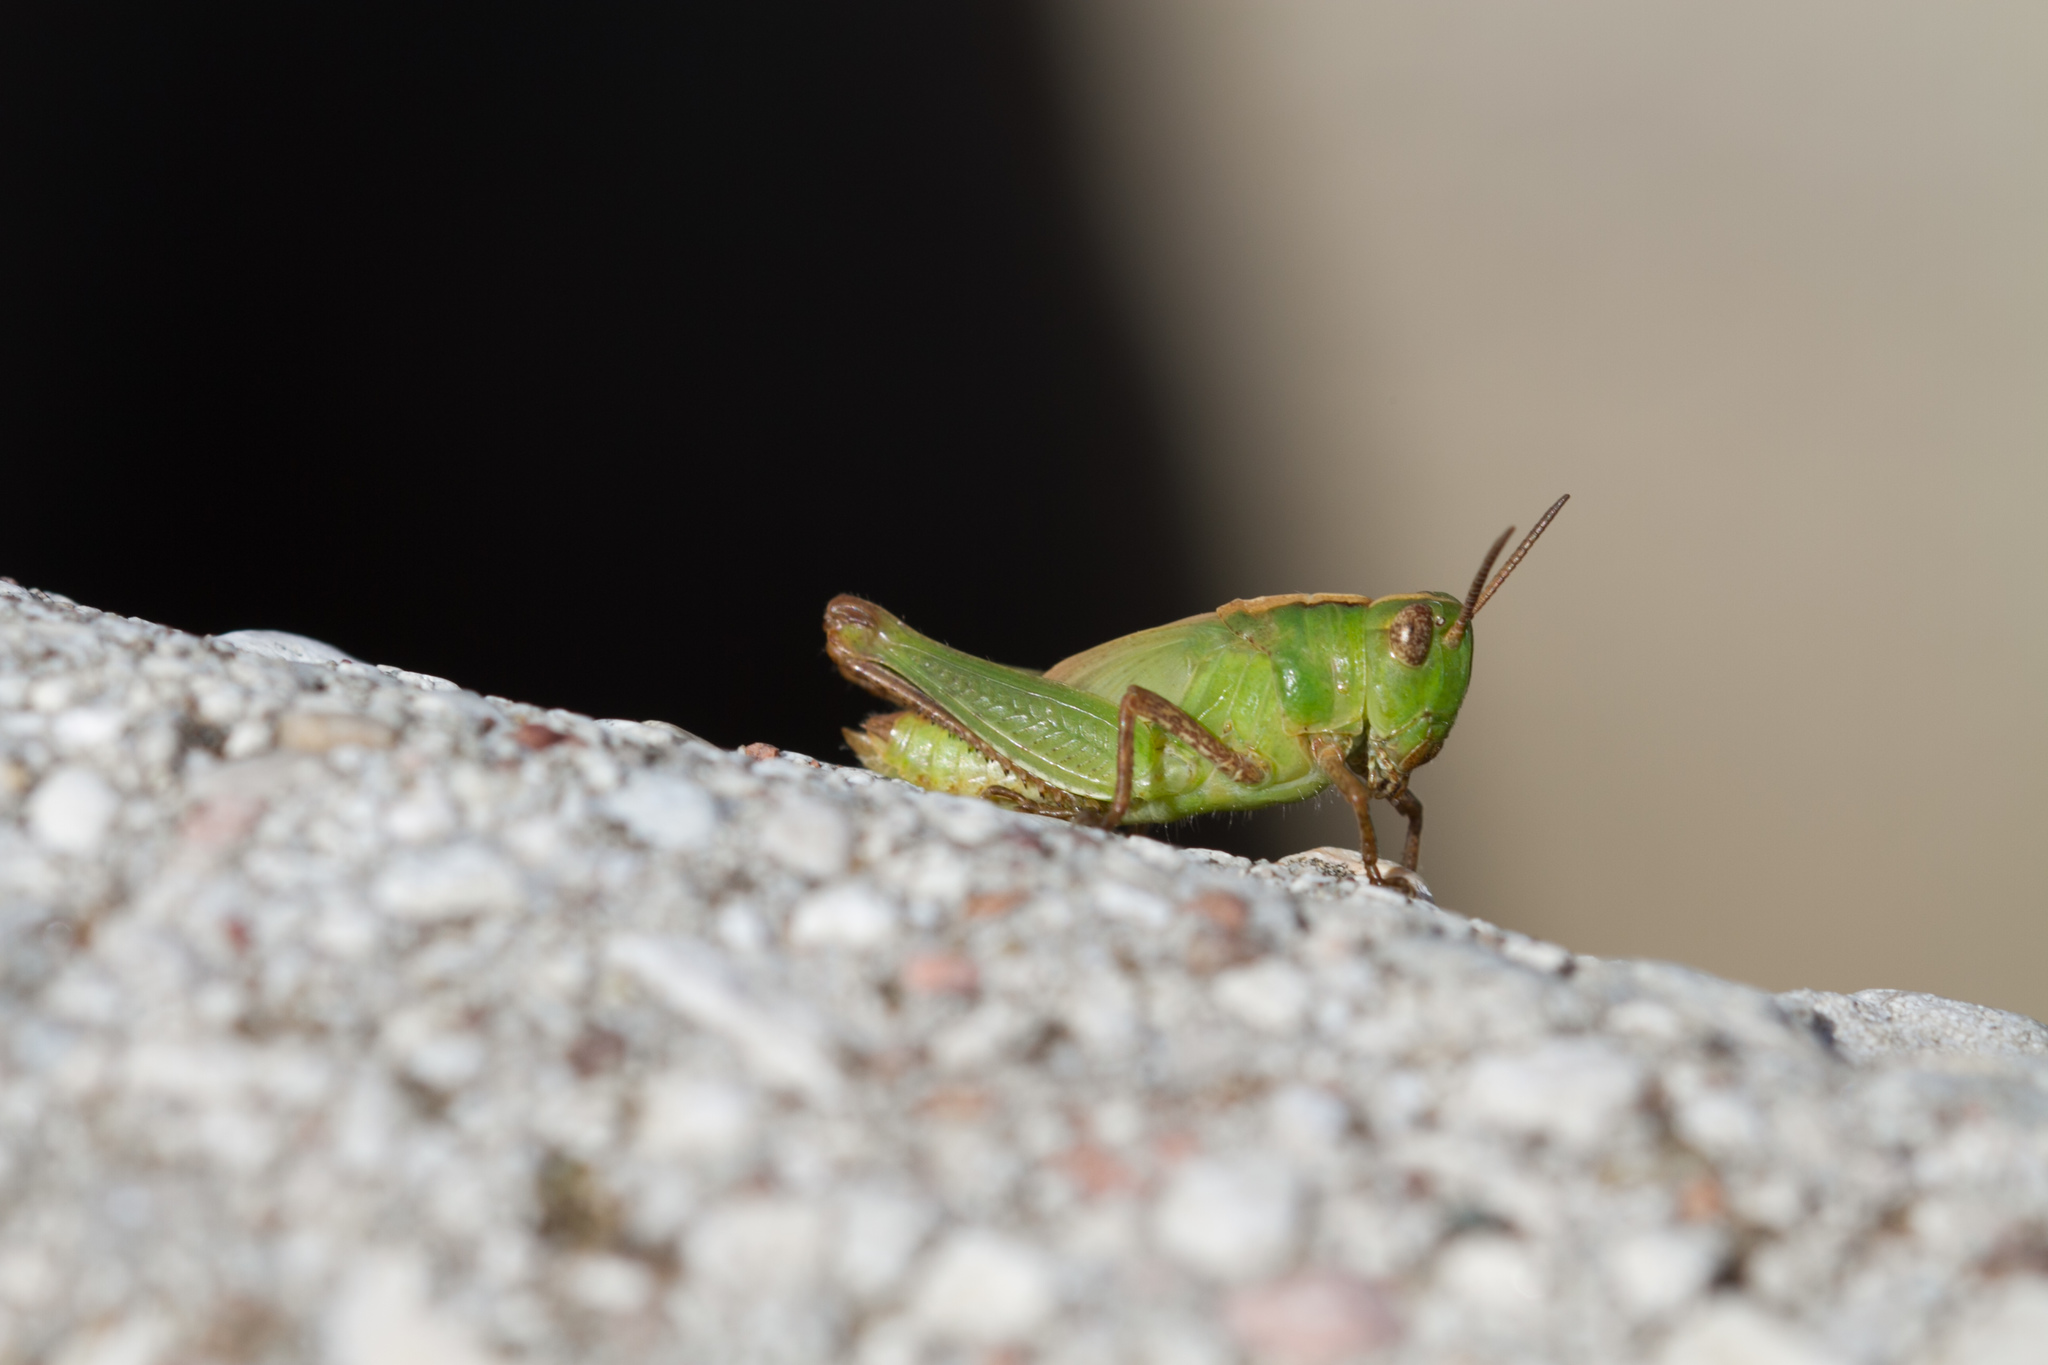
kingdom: Animalia
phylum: Arthropoda
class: Insecta
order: Orthoptera
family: Acrididae
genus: Aiolopus
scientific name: Aiolopus thalassinus
